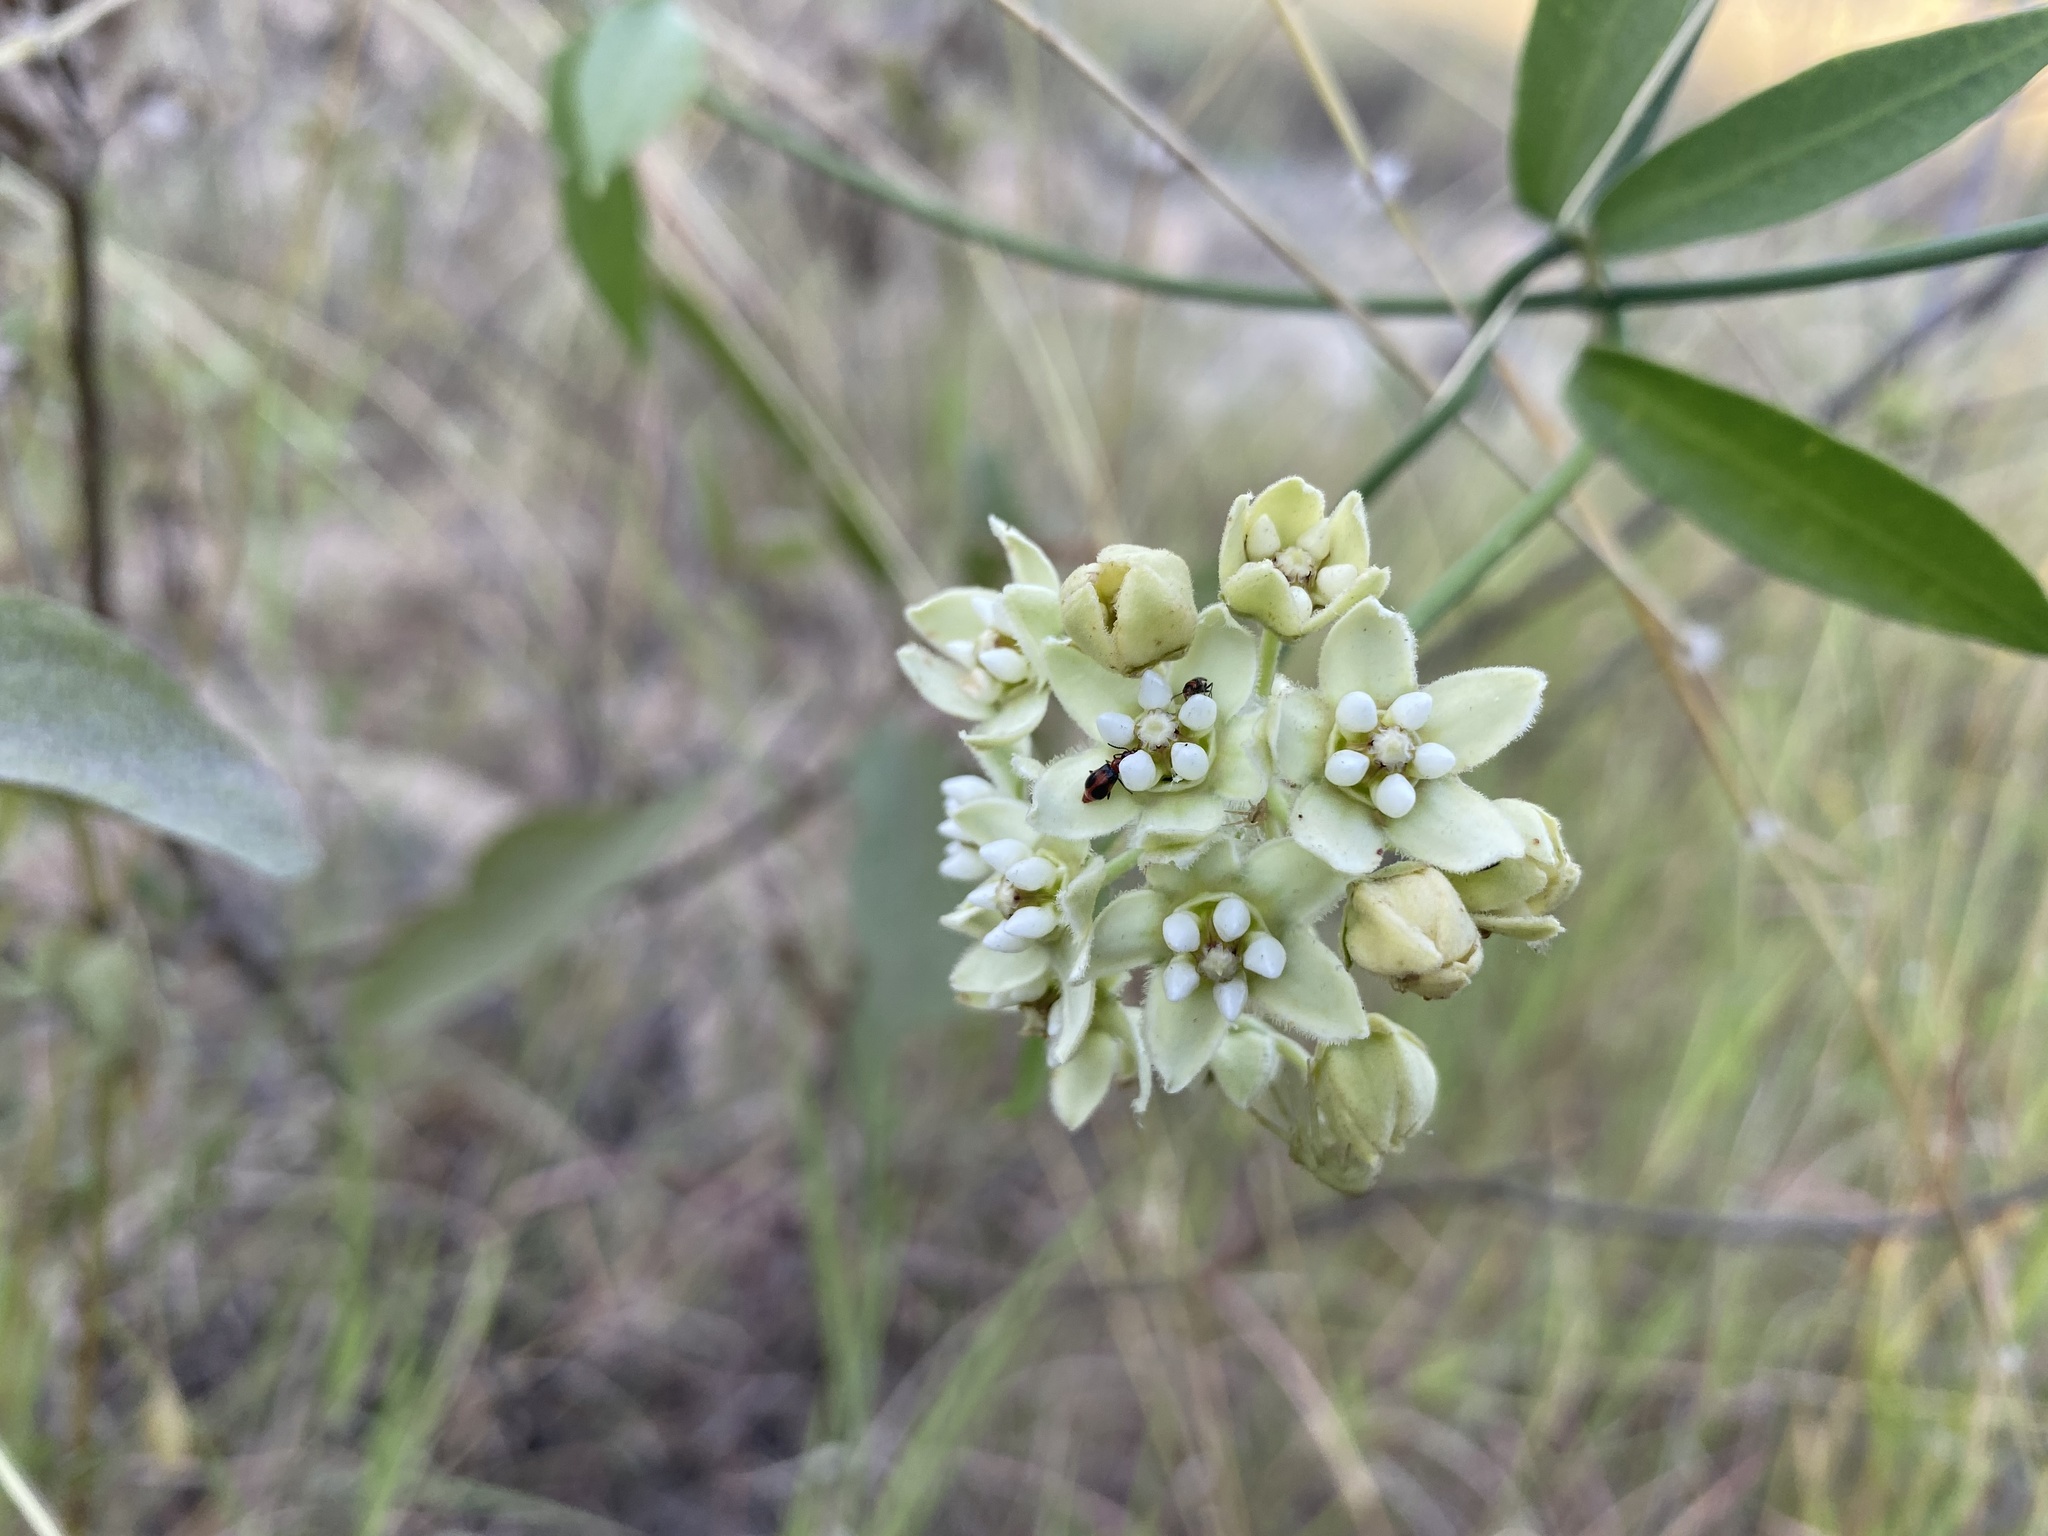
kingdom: Plantae
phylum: Tracheophyta
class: Magnoliopsida
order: Gentianales
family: Apocynaceae
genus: Funastrum
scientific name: Funastrum clausum
